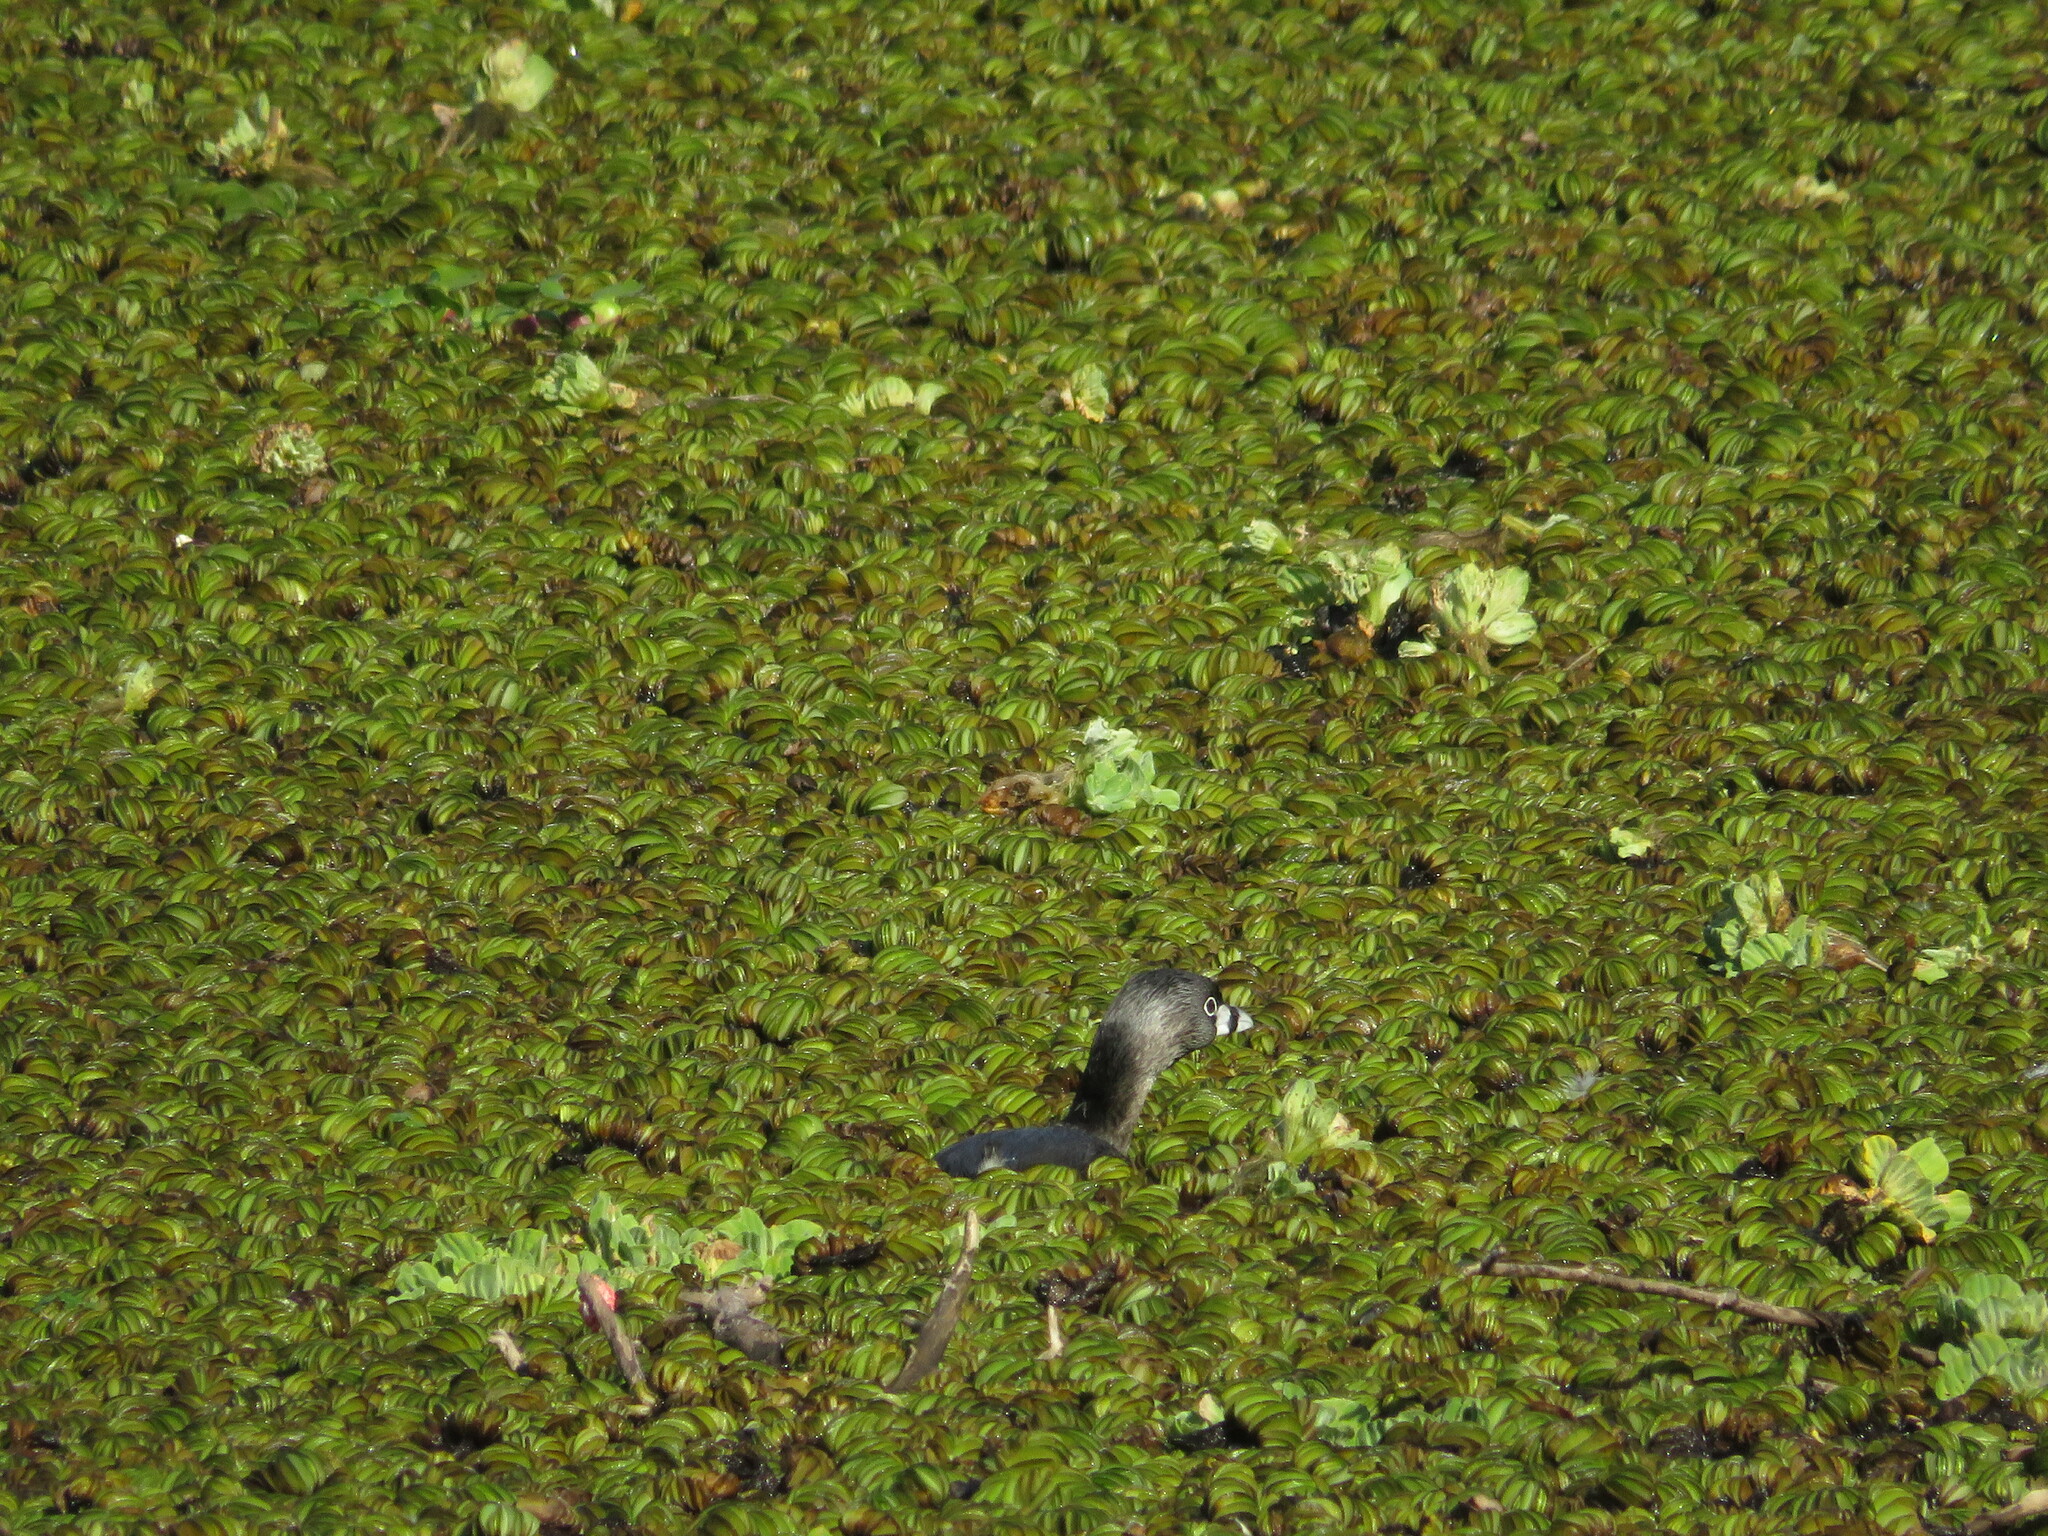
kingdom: Animalia
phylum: Chordata
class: Aves
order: Podicipediformes
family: Podicipedidae
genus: Podilymbus
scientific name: Podilymbus podiceps
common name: Pied-billed grebe
